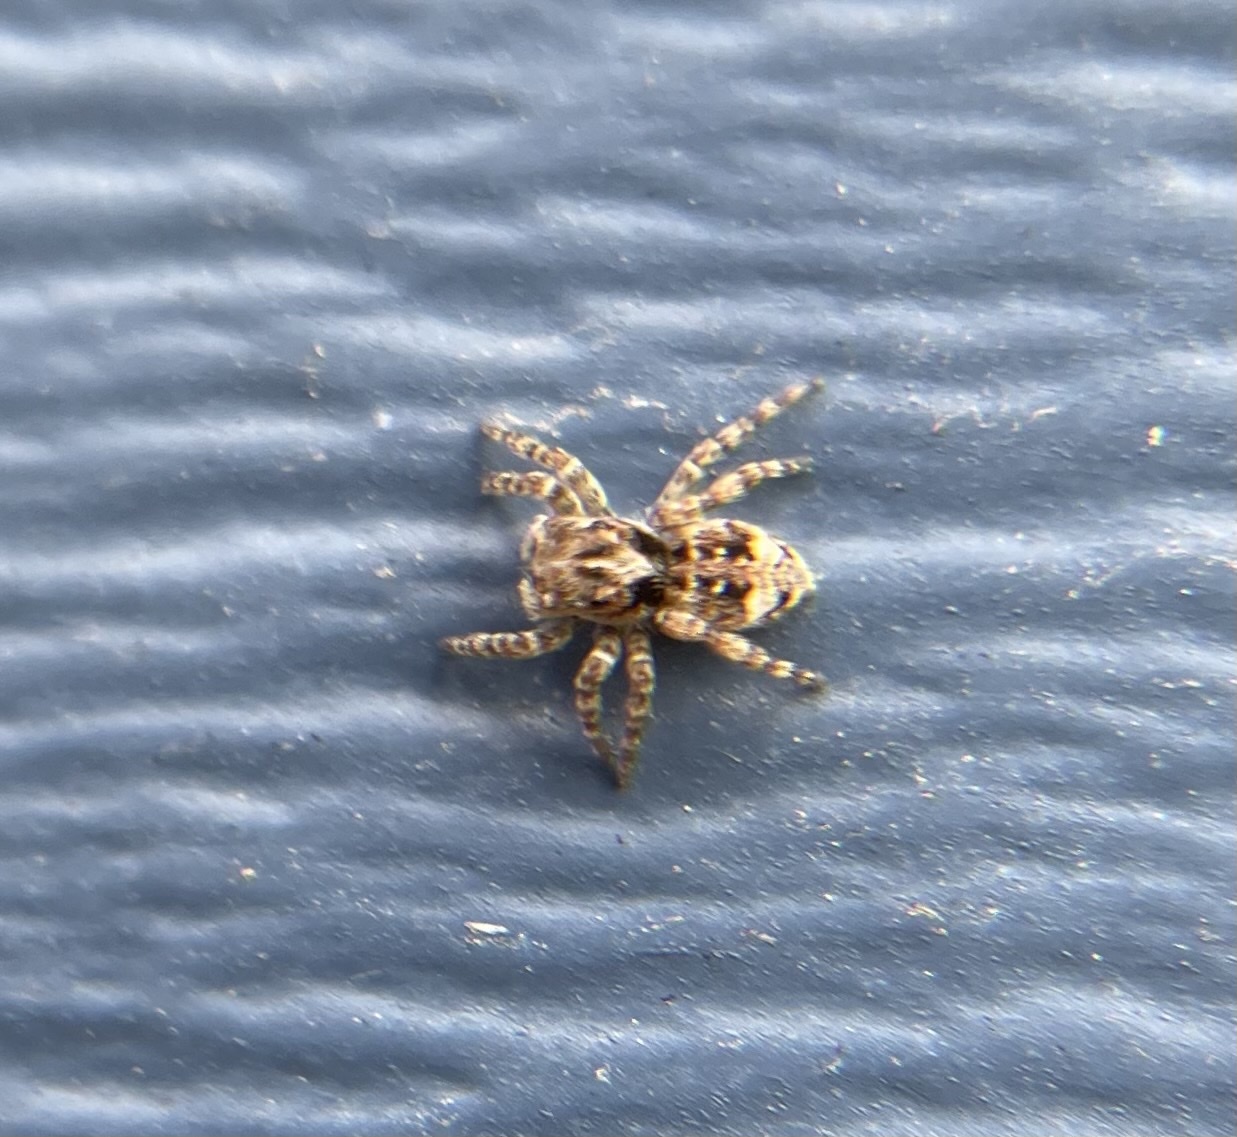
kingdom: Animalia
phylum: Arthropoda
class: Arachnida
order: Araneae
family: Salticidae
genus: Attulus
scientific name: Attulus fasciger
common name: Asiatic wall jumping spider
